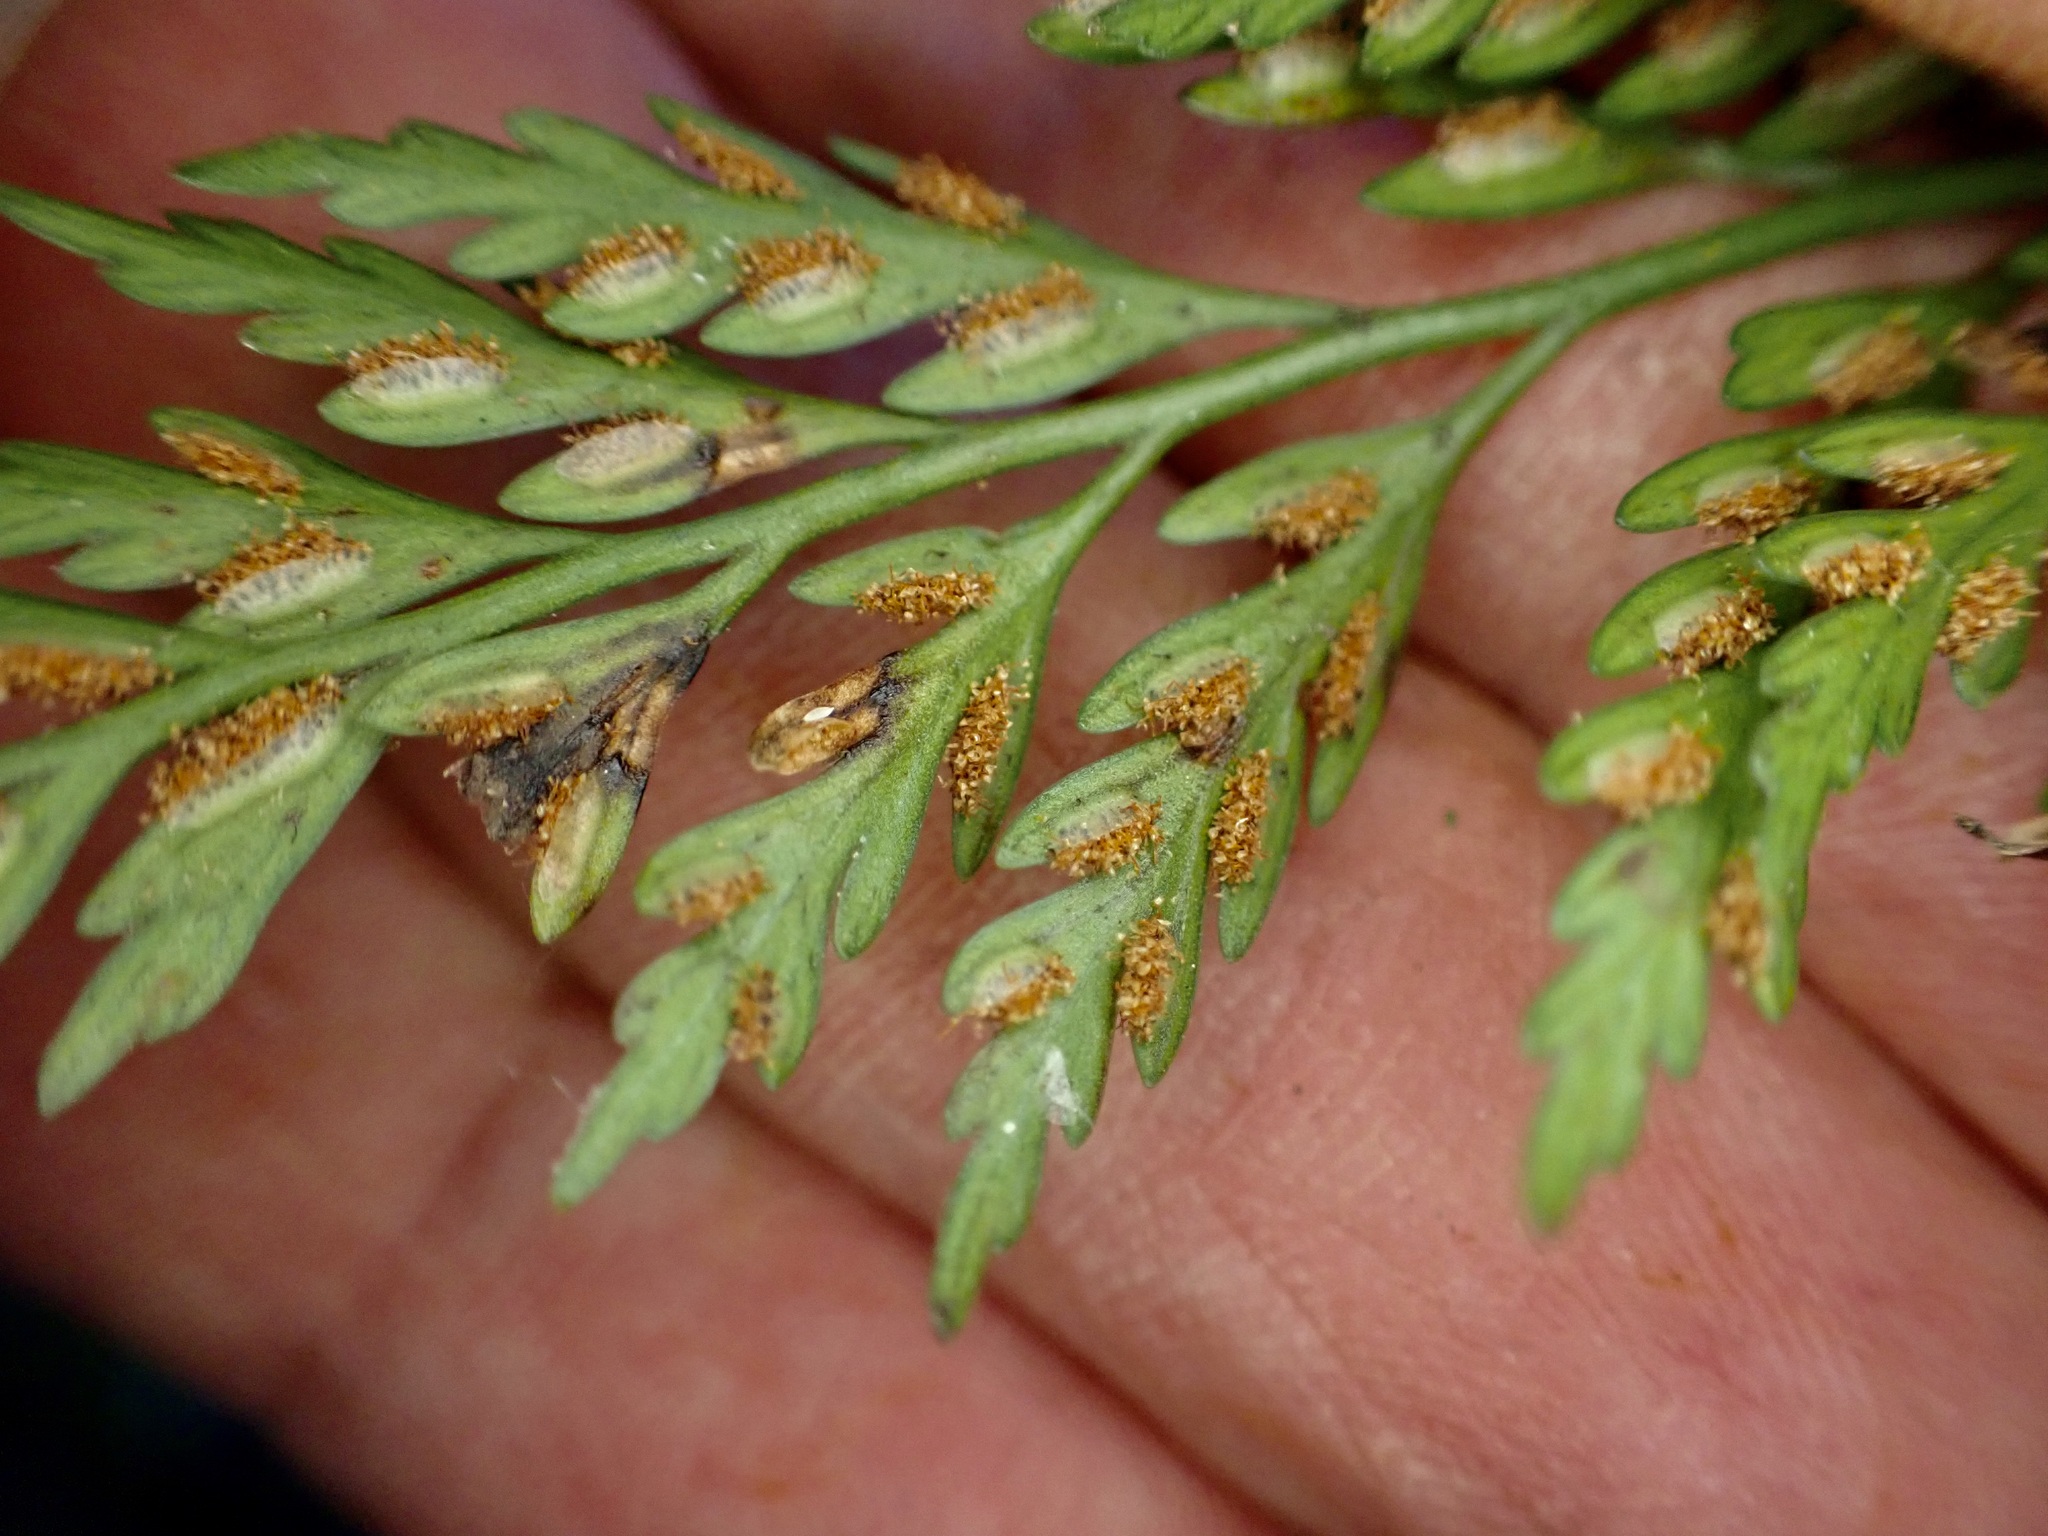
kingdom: Plantae
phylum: Tracheophyta
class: Polypodiopsida
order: Polypodiales
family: Aspleniaceae
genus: Asplenium
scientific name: Asplenium appendiculatum
